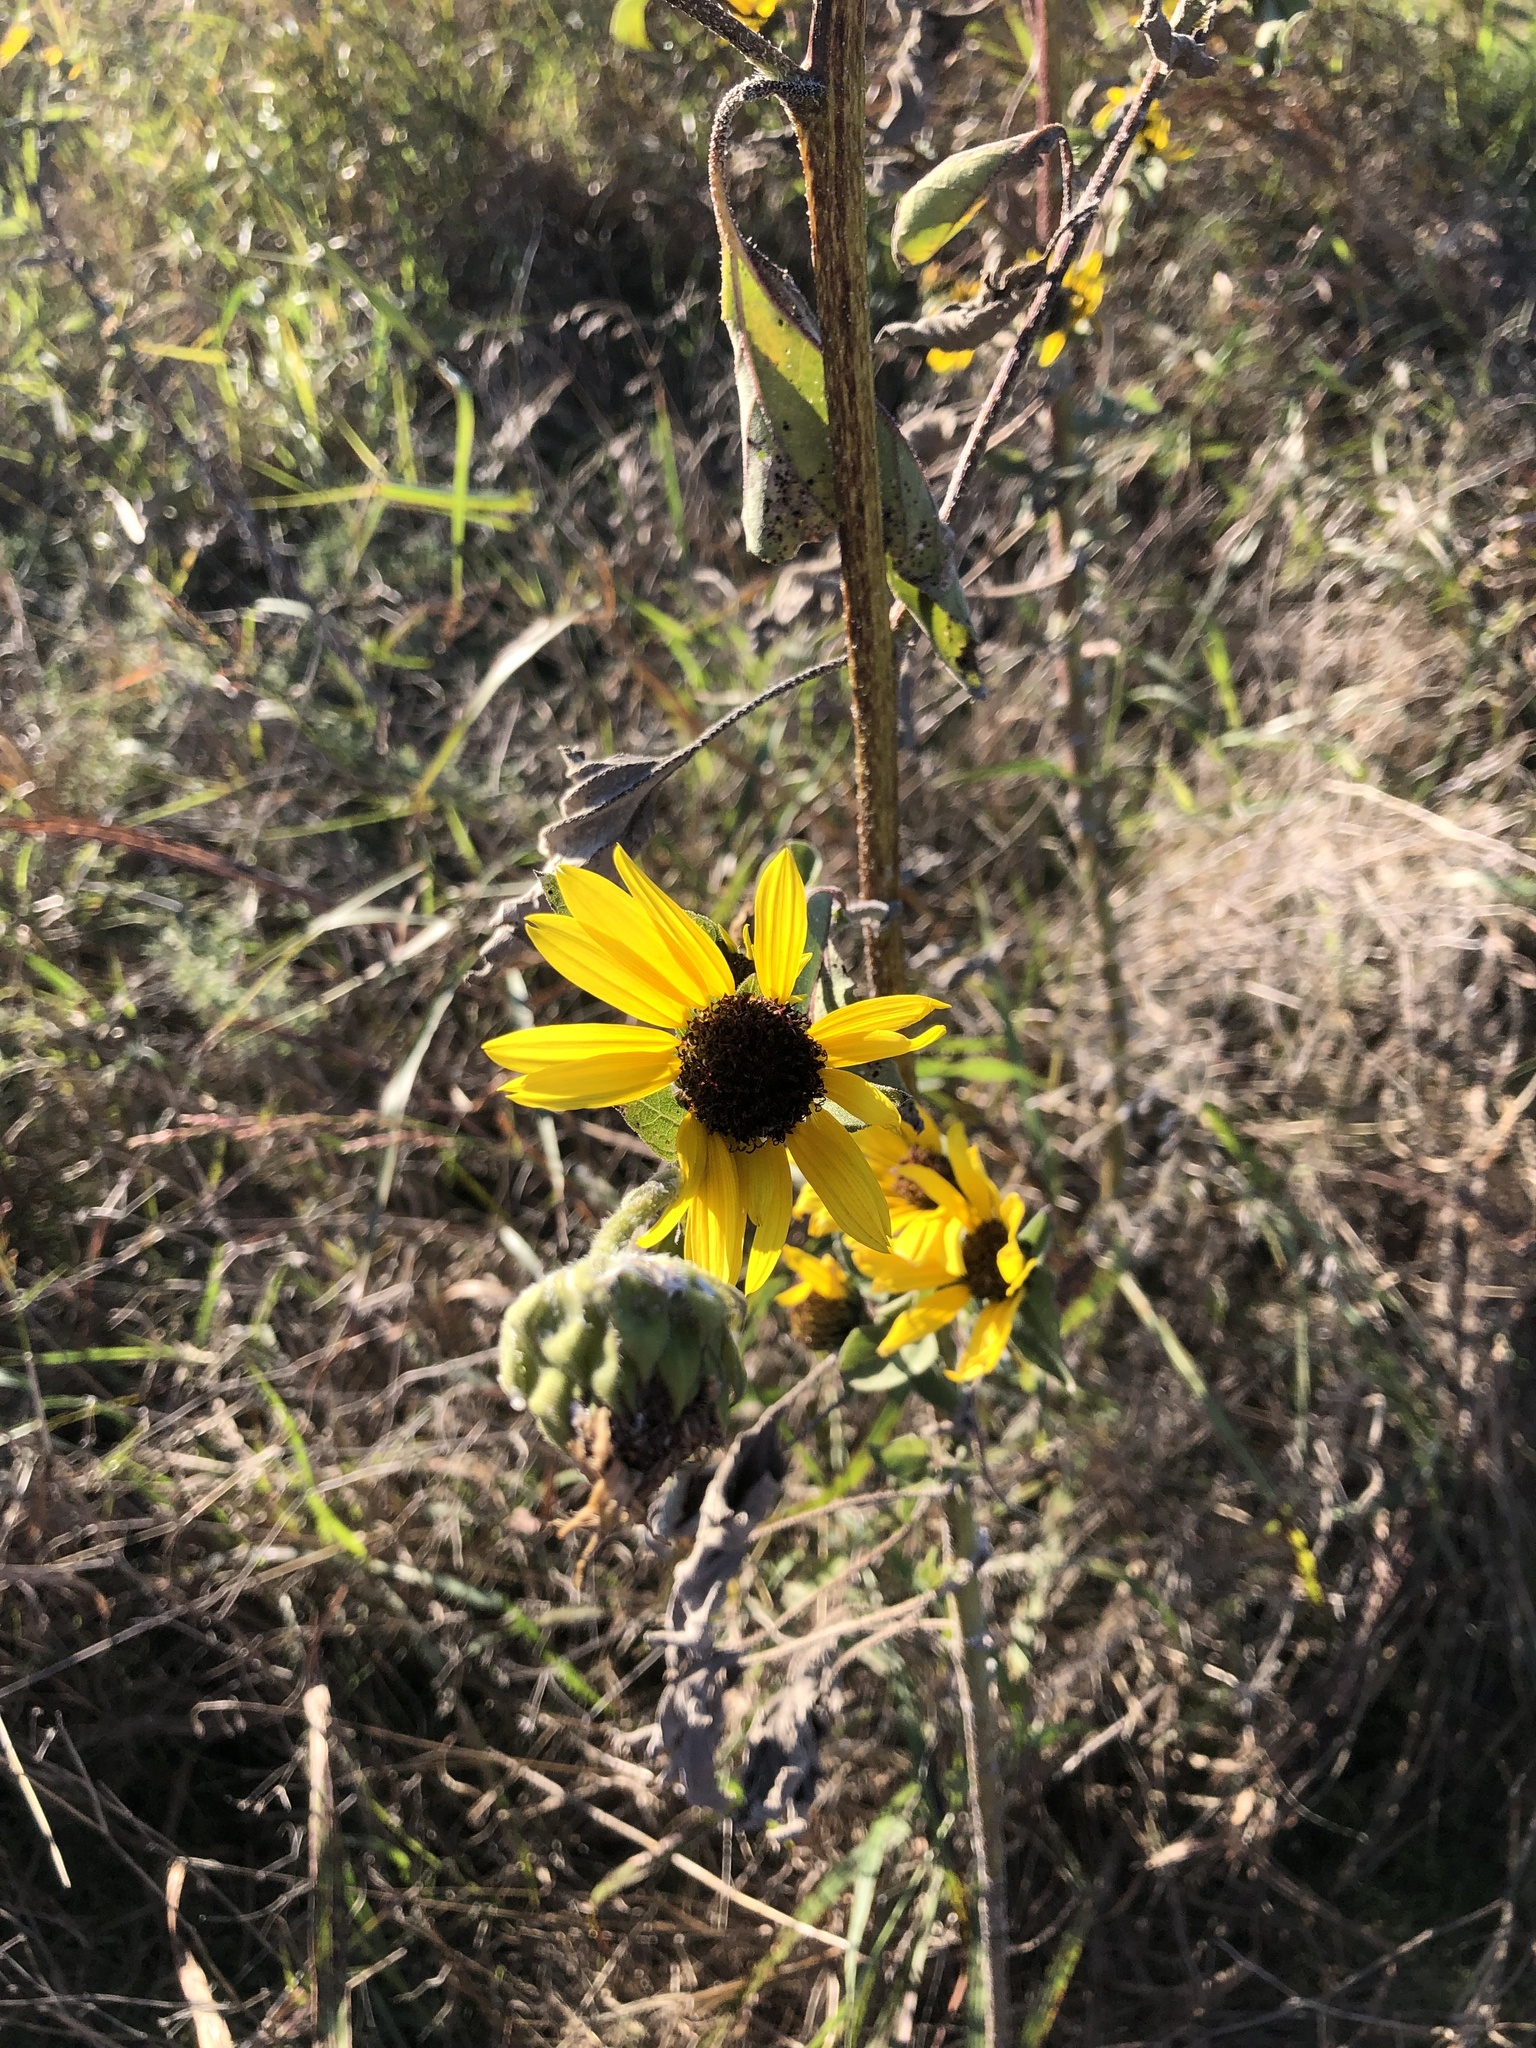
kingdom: Plantae
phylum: Tracheophyta
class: Magnoliopsida
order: Asterales
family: Asteraceae
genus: Helianthus
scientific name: Helianthus annuus
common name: Sunflower
